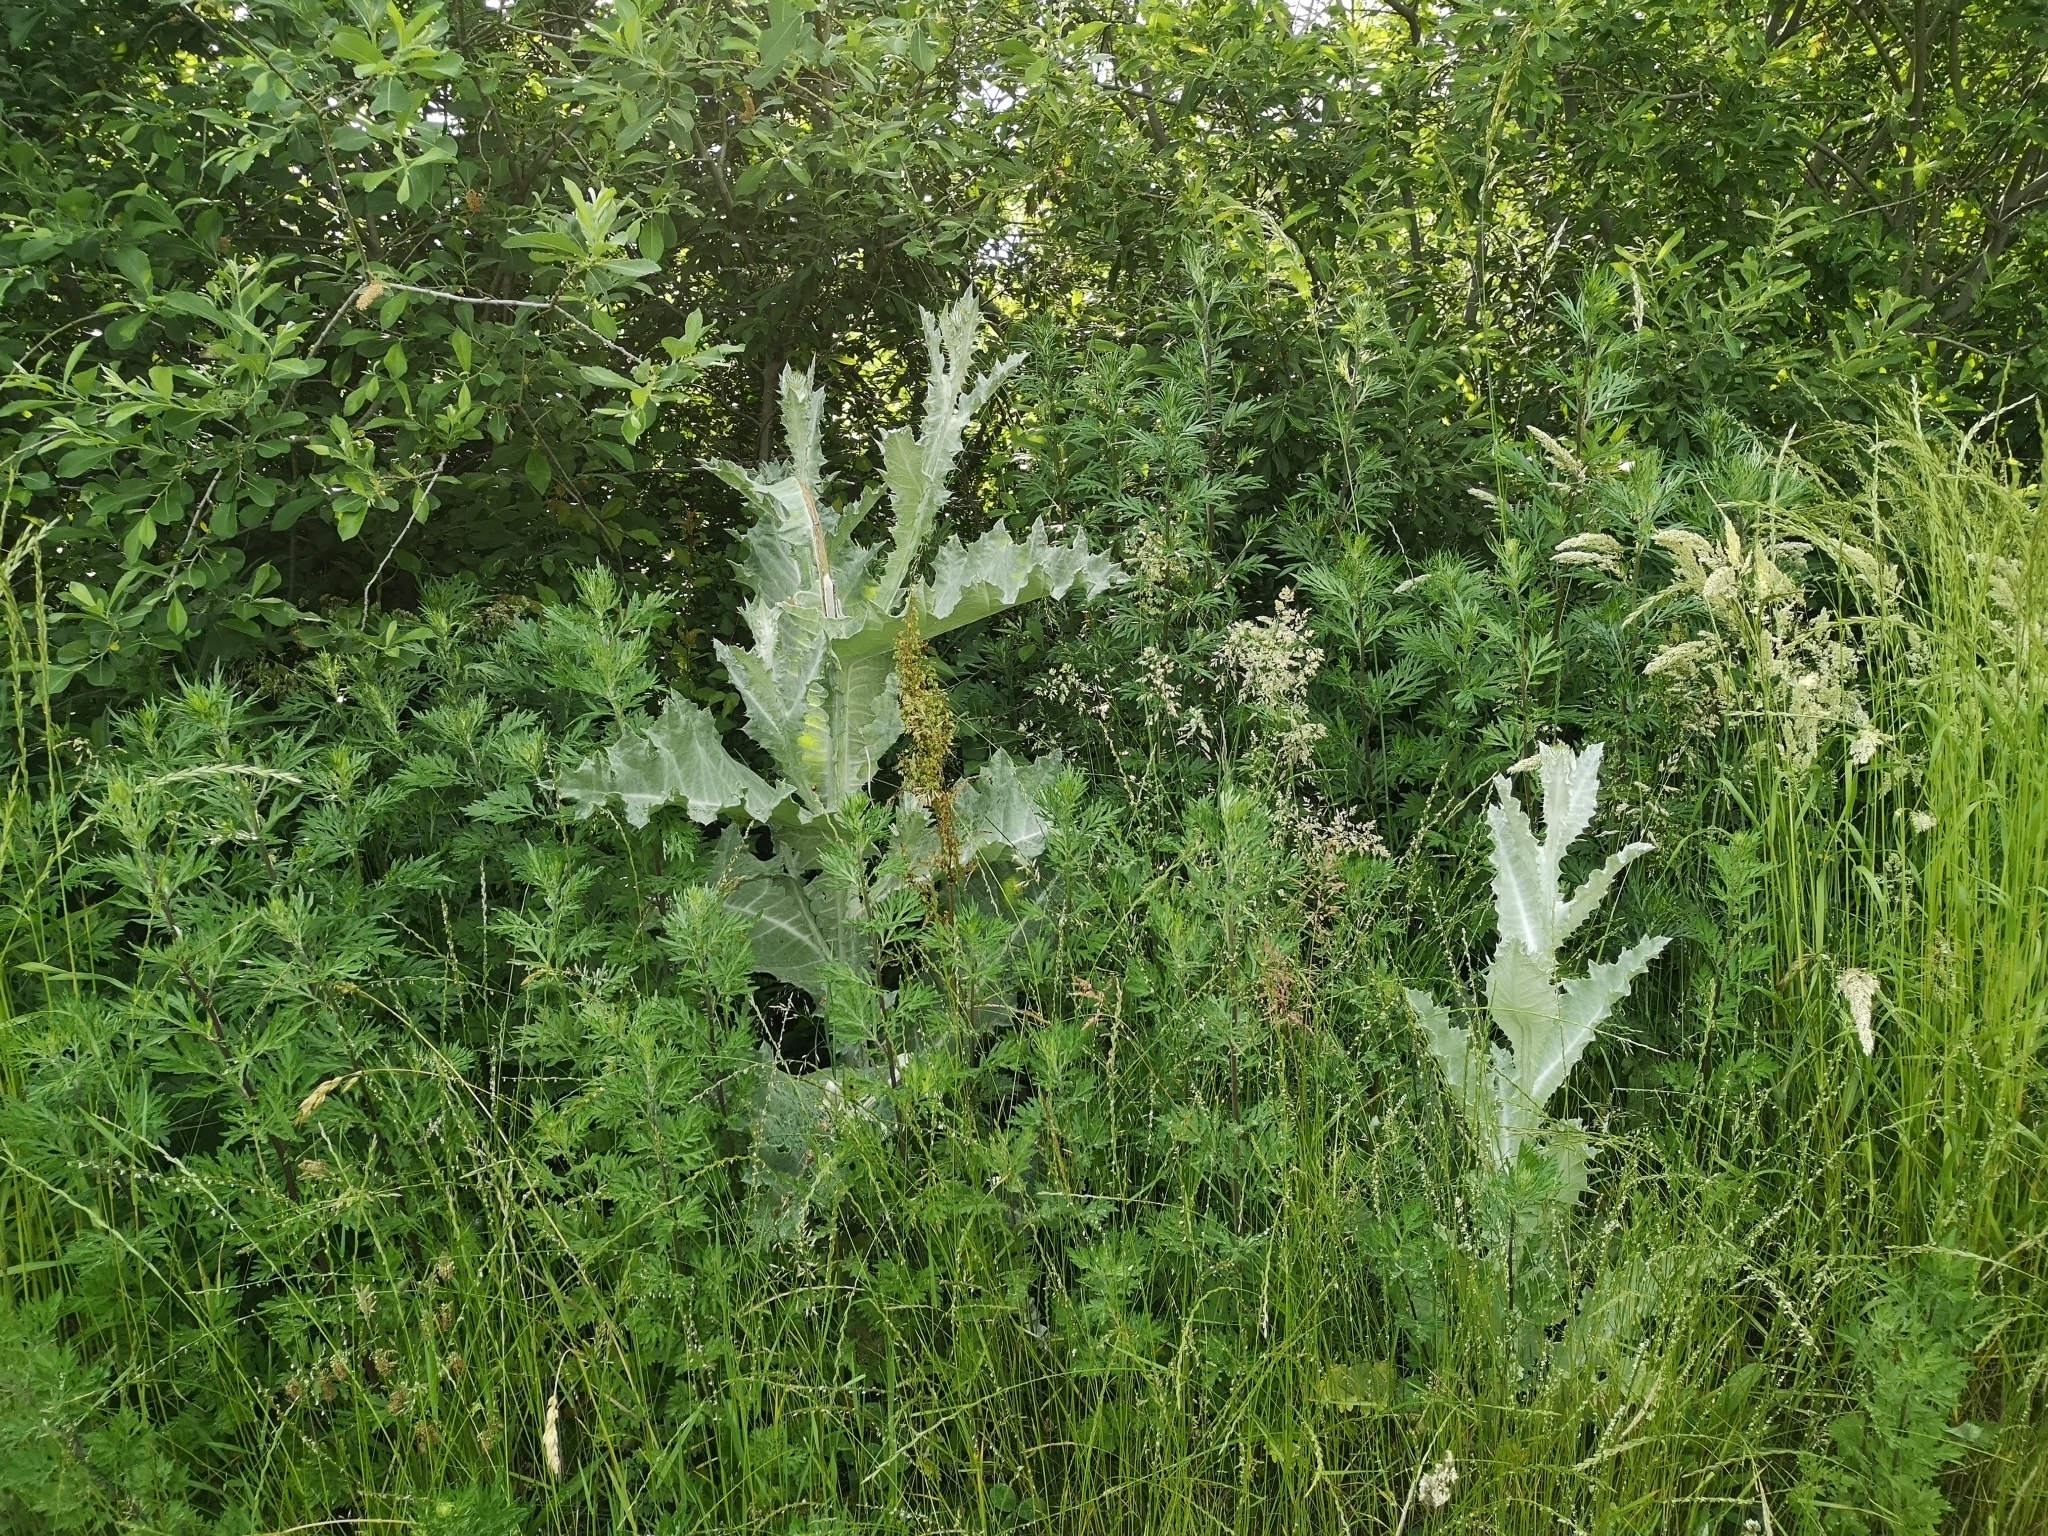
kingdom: Plantae
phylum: Tracheophyta
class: Magnoliopsida
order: Asterales
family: Asteraceae
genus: Onopordum
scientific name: Onopordum acanthium
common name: Scotch thistle
